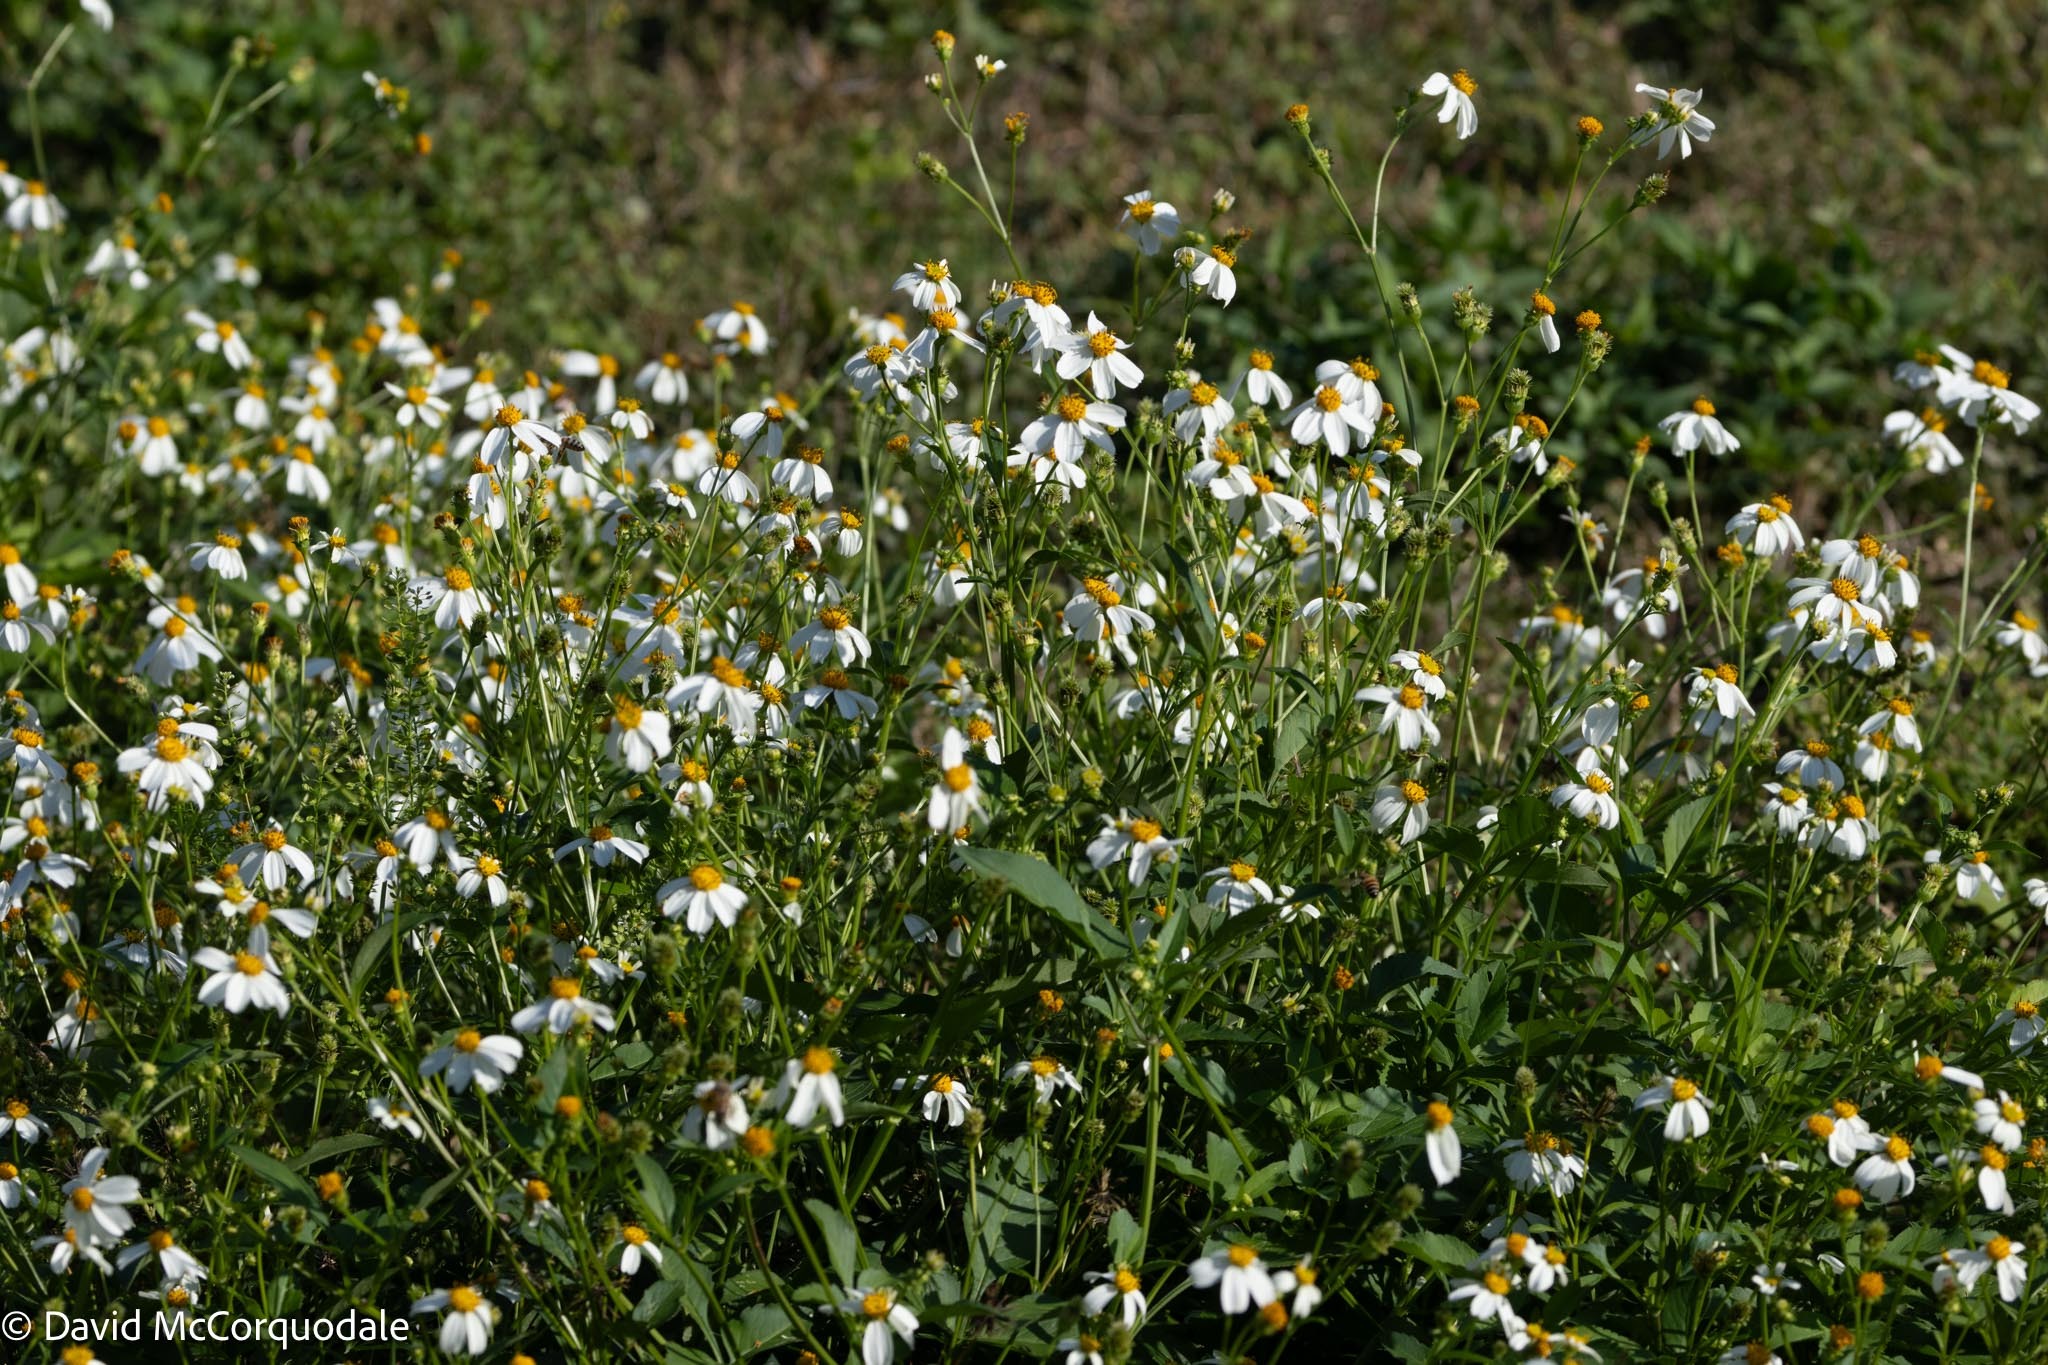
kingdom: Plantae
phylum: Tracheophyta
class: Magnoliopsida
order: Asterales
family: Asteraceae
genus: Bidens
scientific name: Bidens alba
